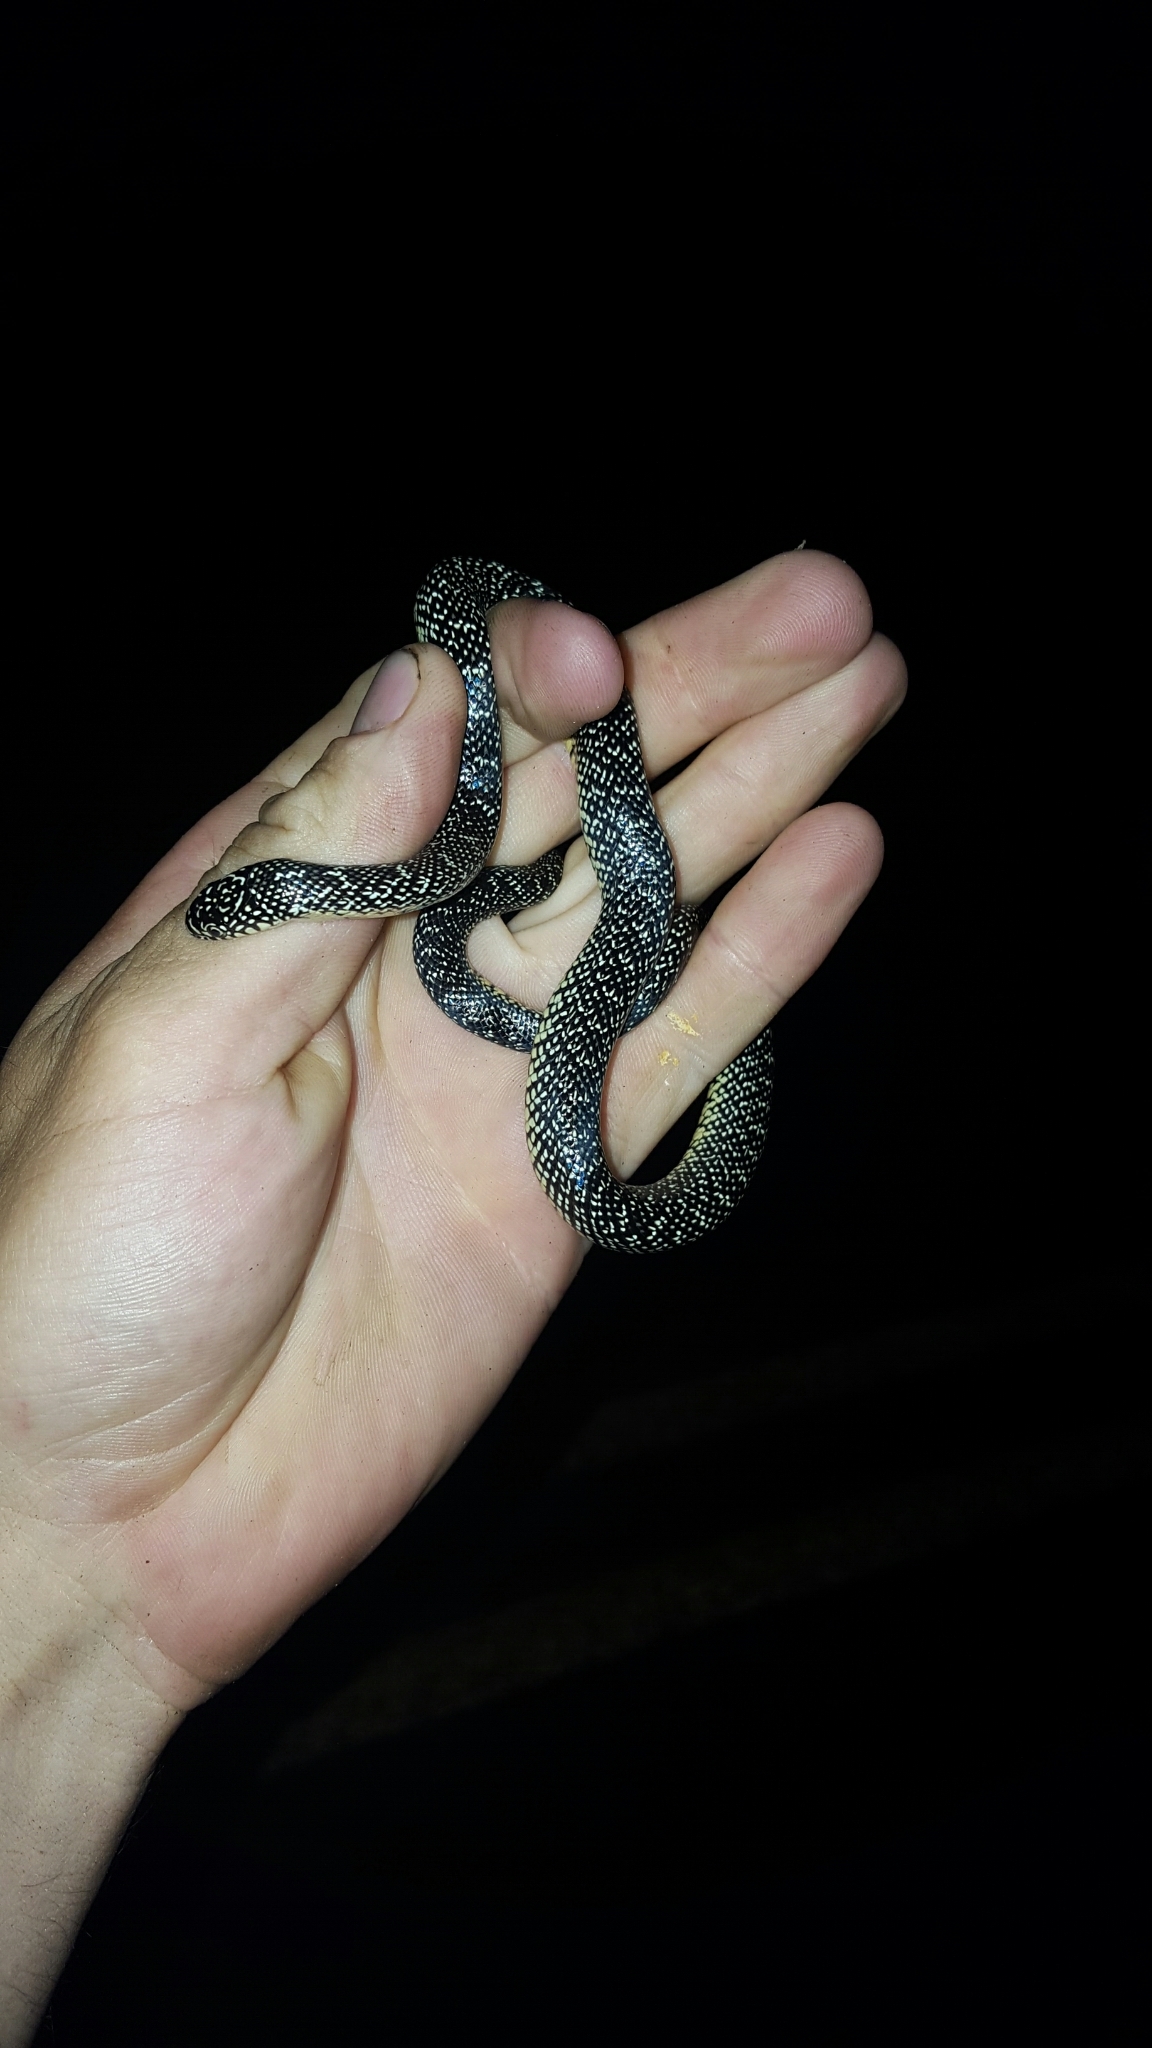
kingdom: Animalia
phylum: Chordata
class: Squamata
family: Colubridae
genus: Lampropeltis
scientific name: Lampropeltis holbrooki
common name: Speckled kingsnake
